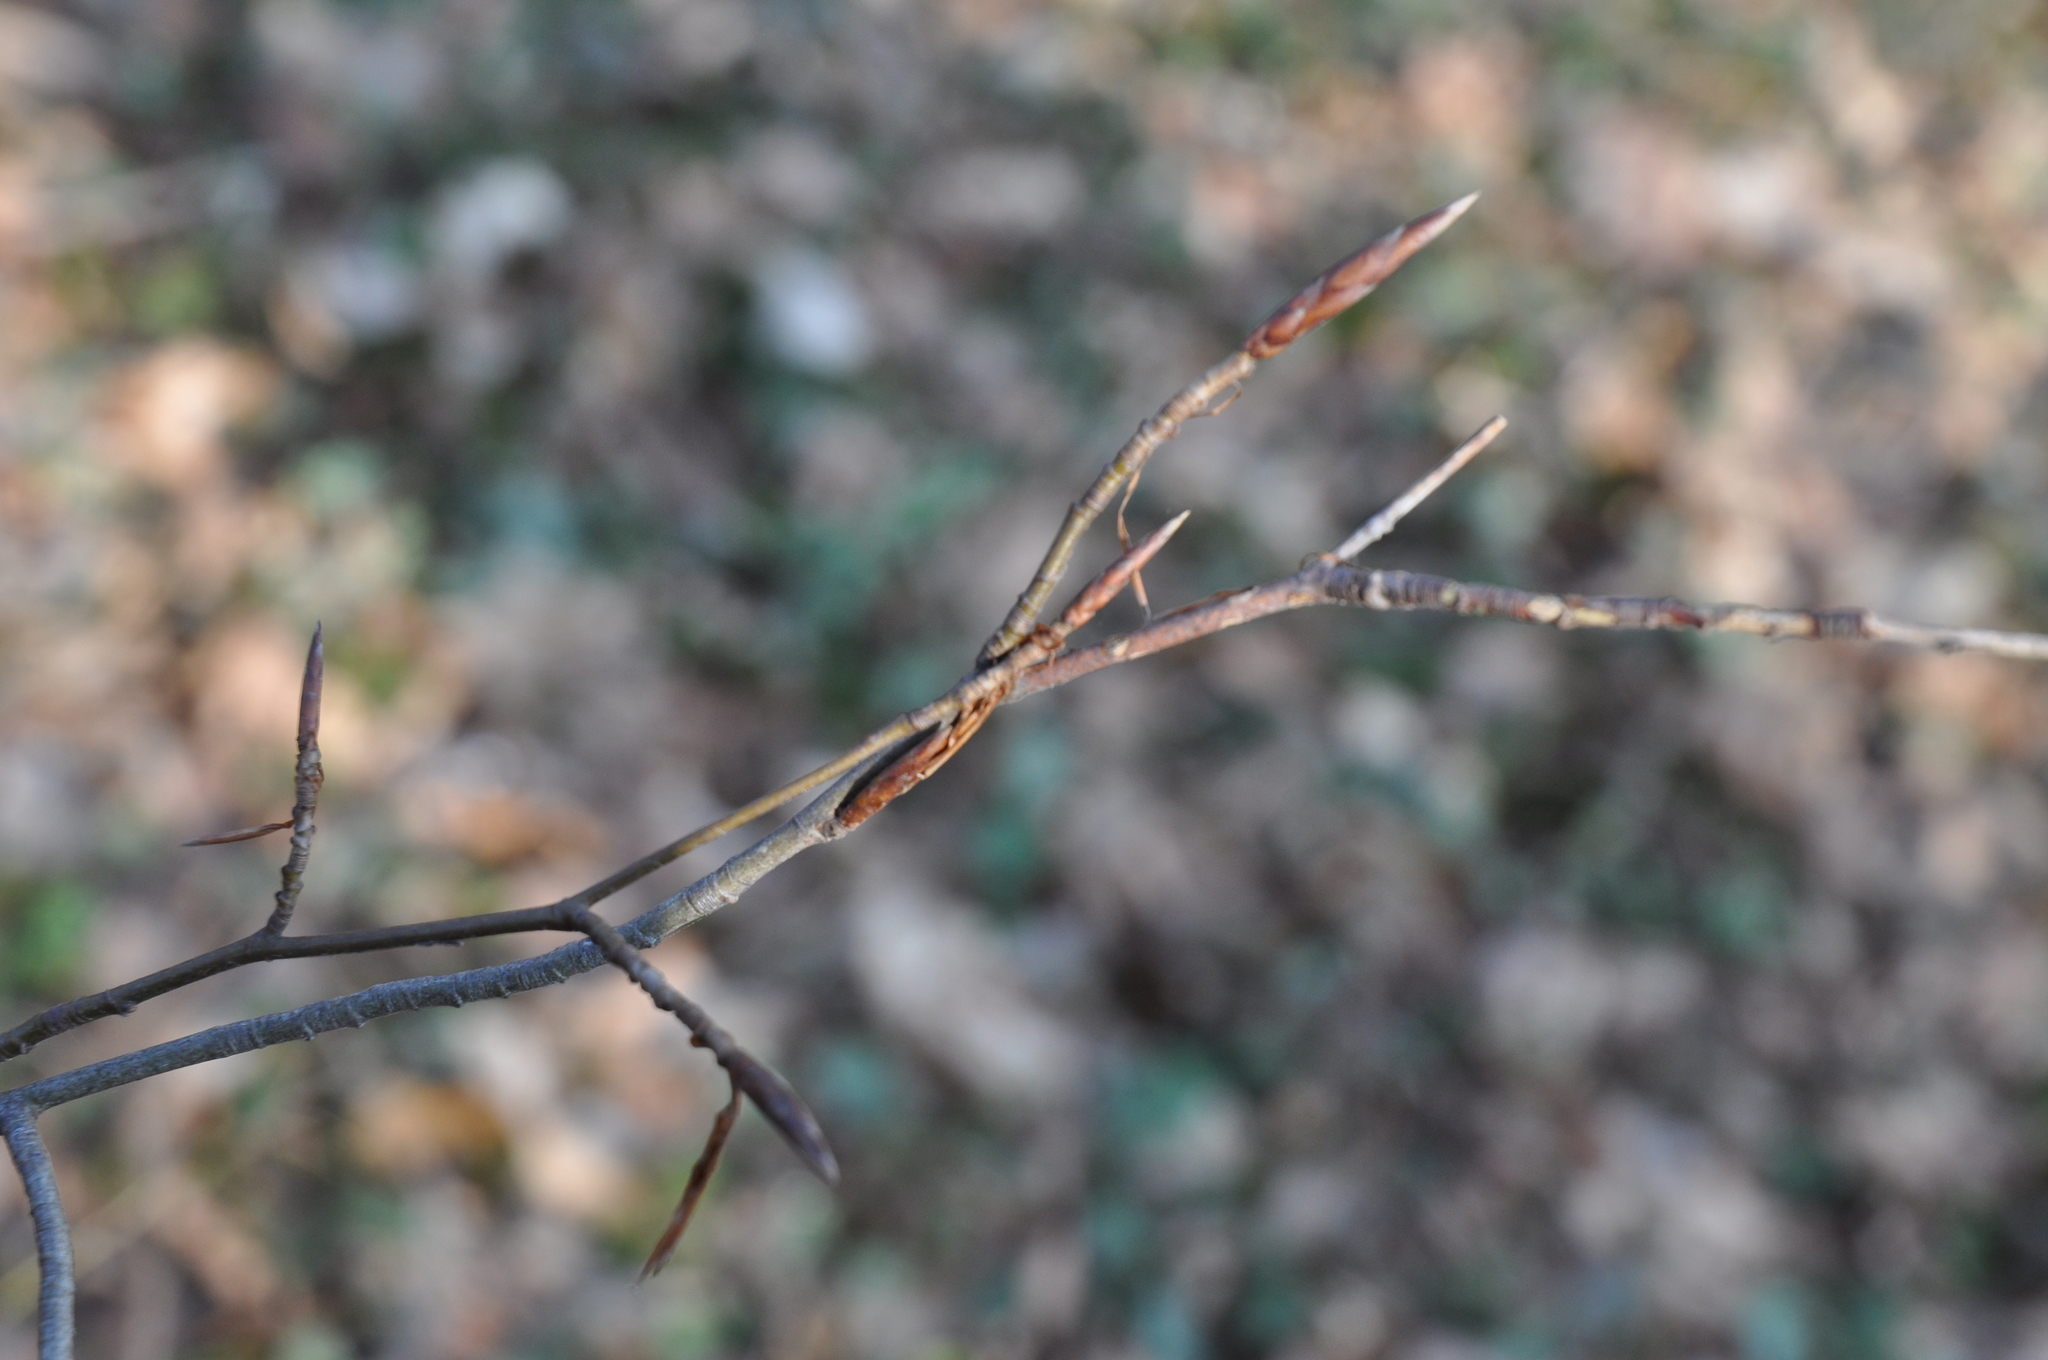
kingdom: Plantae
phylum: Tracheophyta
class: Magnoliopsida
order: Fagales
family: Fagaceae
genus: Fagus
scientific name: Fagus sylvatica
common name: Beech
